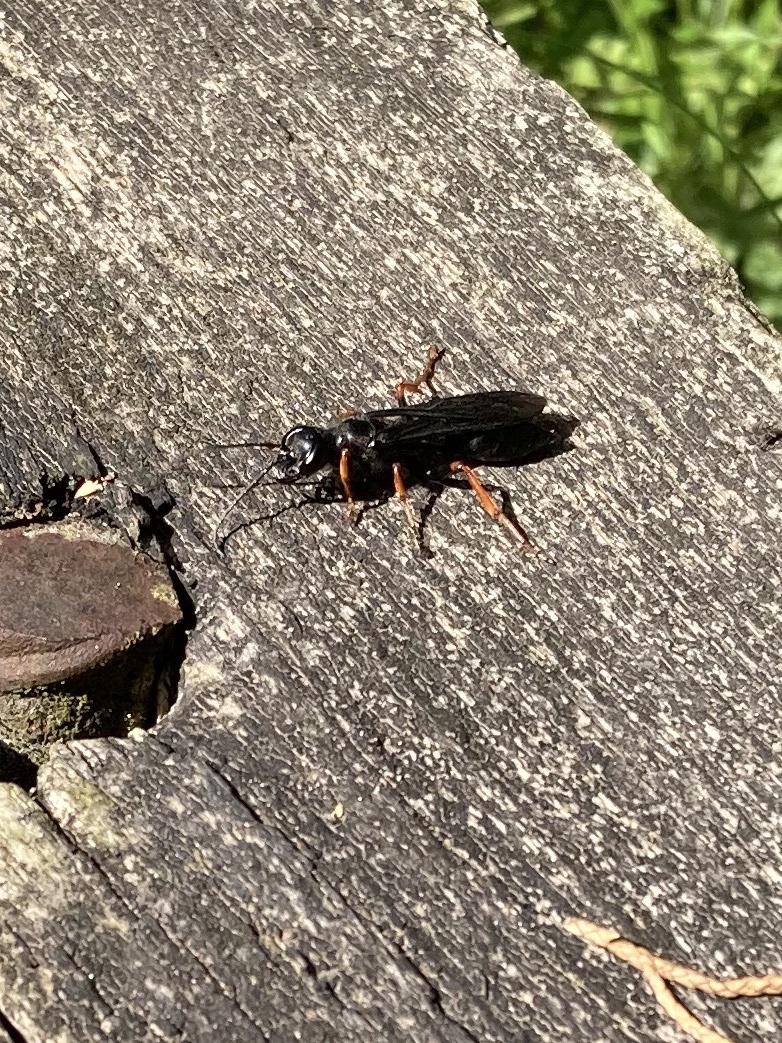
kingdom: Animalia
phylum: Arthropoda
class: Insecta
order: Hymenoptera
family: Sphecidae
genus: Podium
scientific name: Podium luctuosum
